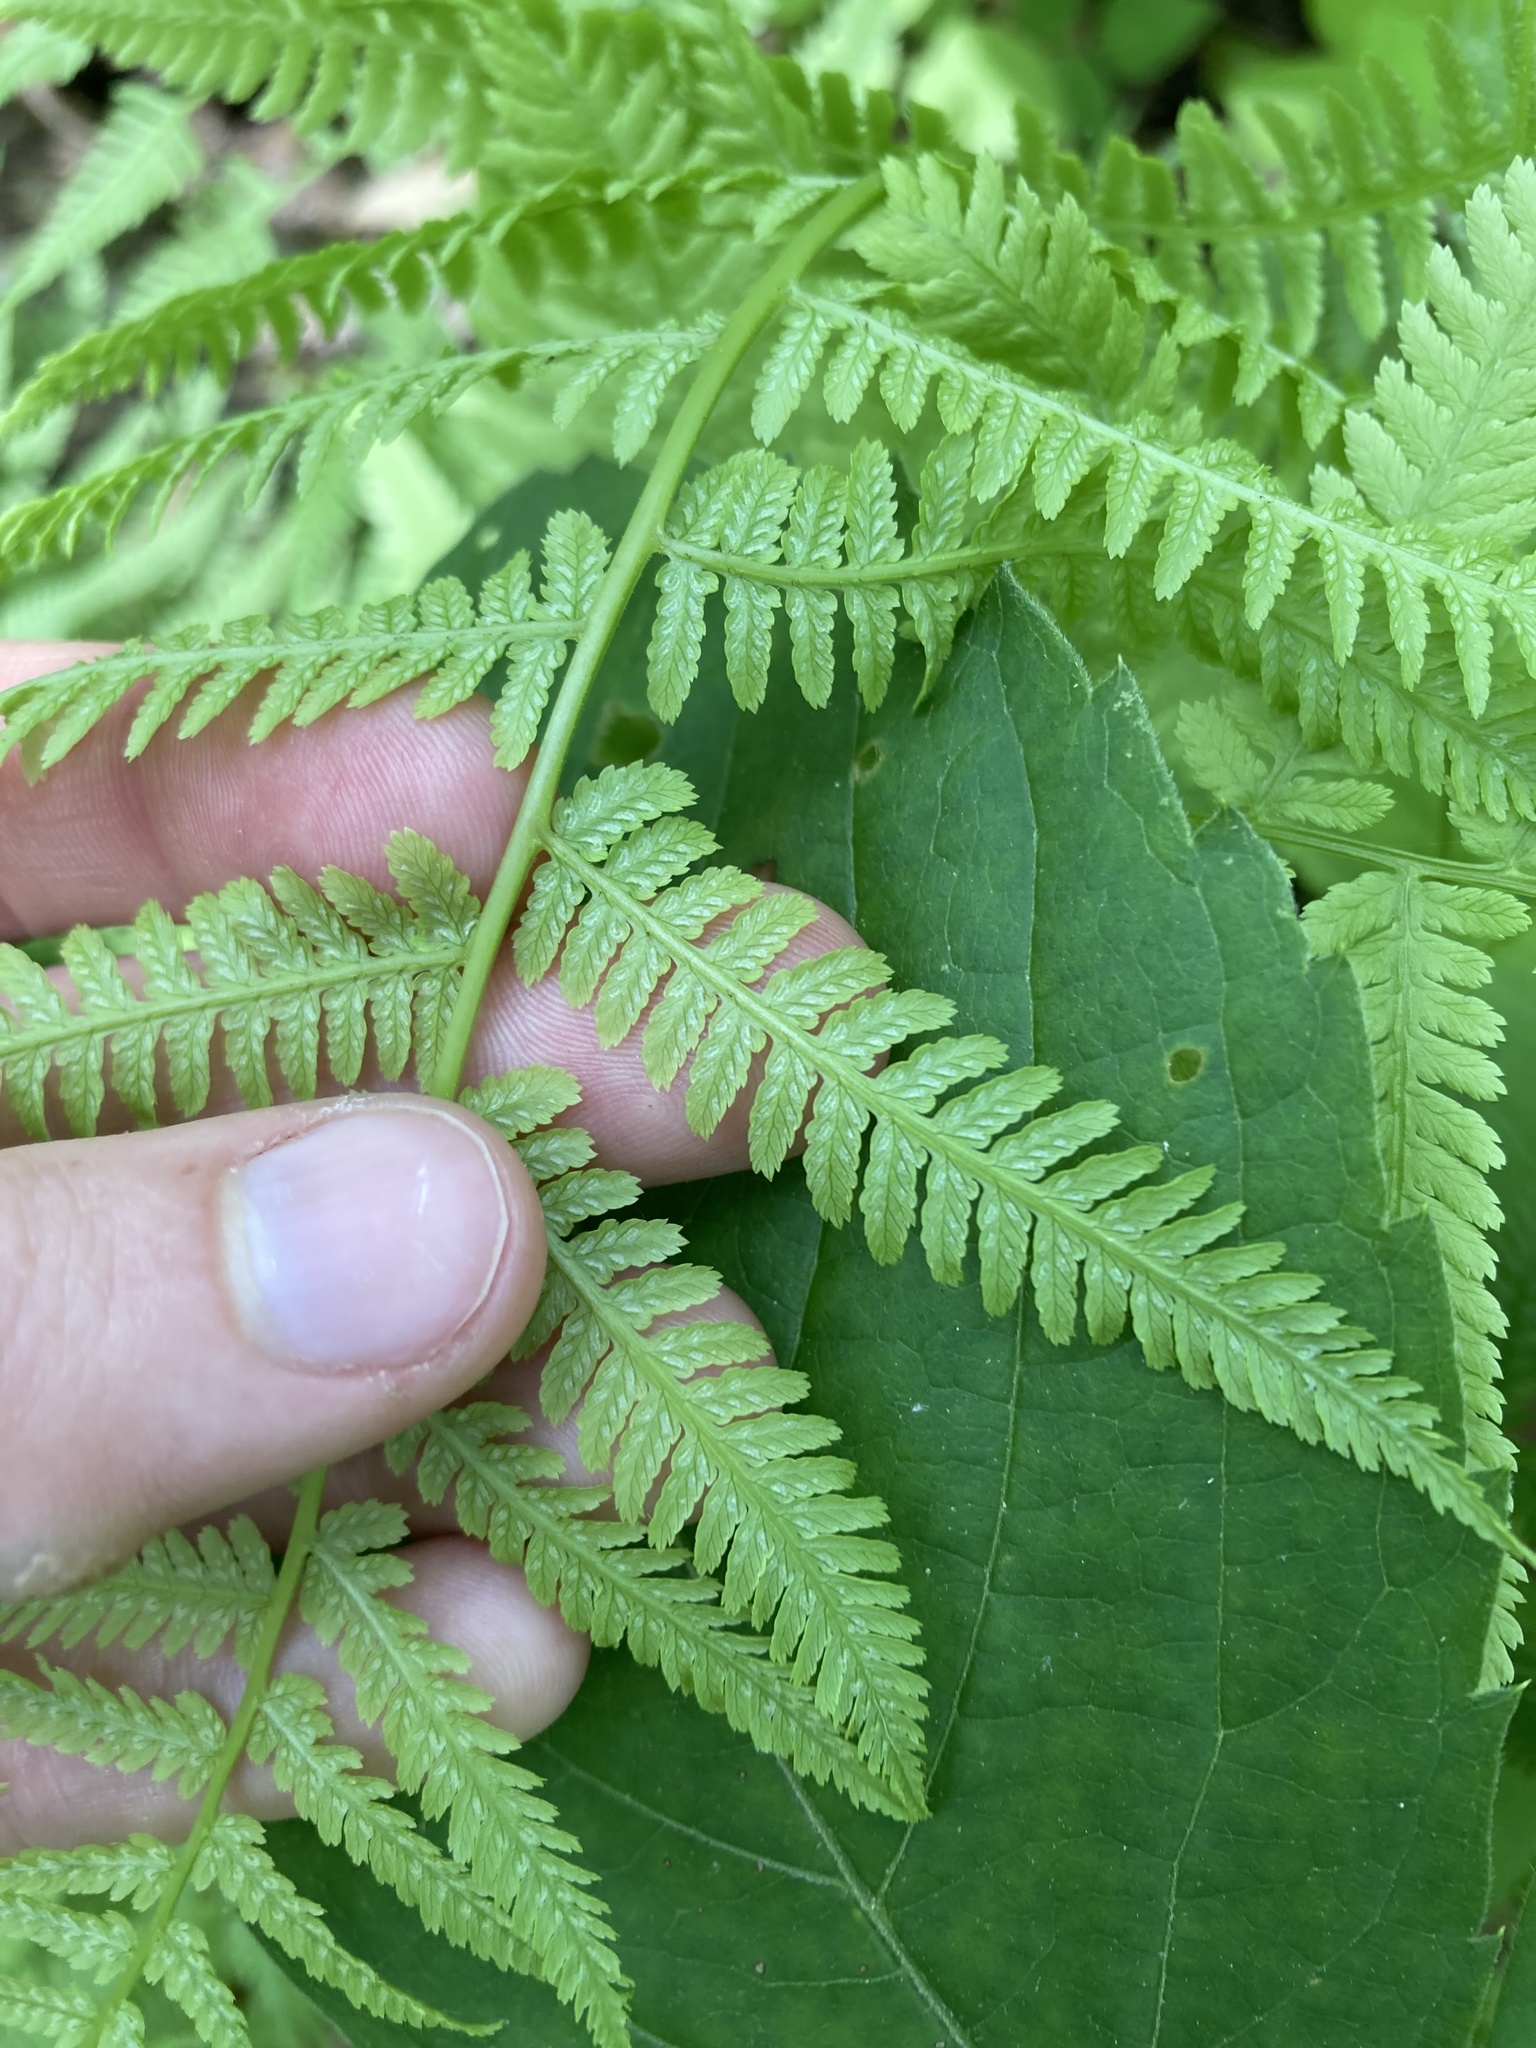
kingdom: Plantae
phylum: Tracheophyta
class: Polypodiopsida
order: Polypodiales
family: Athyriaceae
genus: Athyrium
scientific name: Athyrium angustum
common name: Northern lady fern
